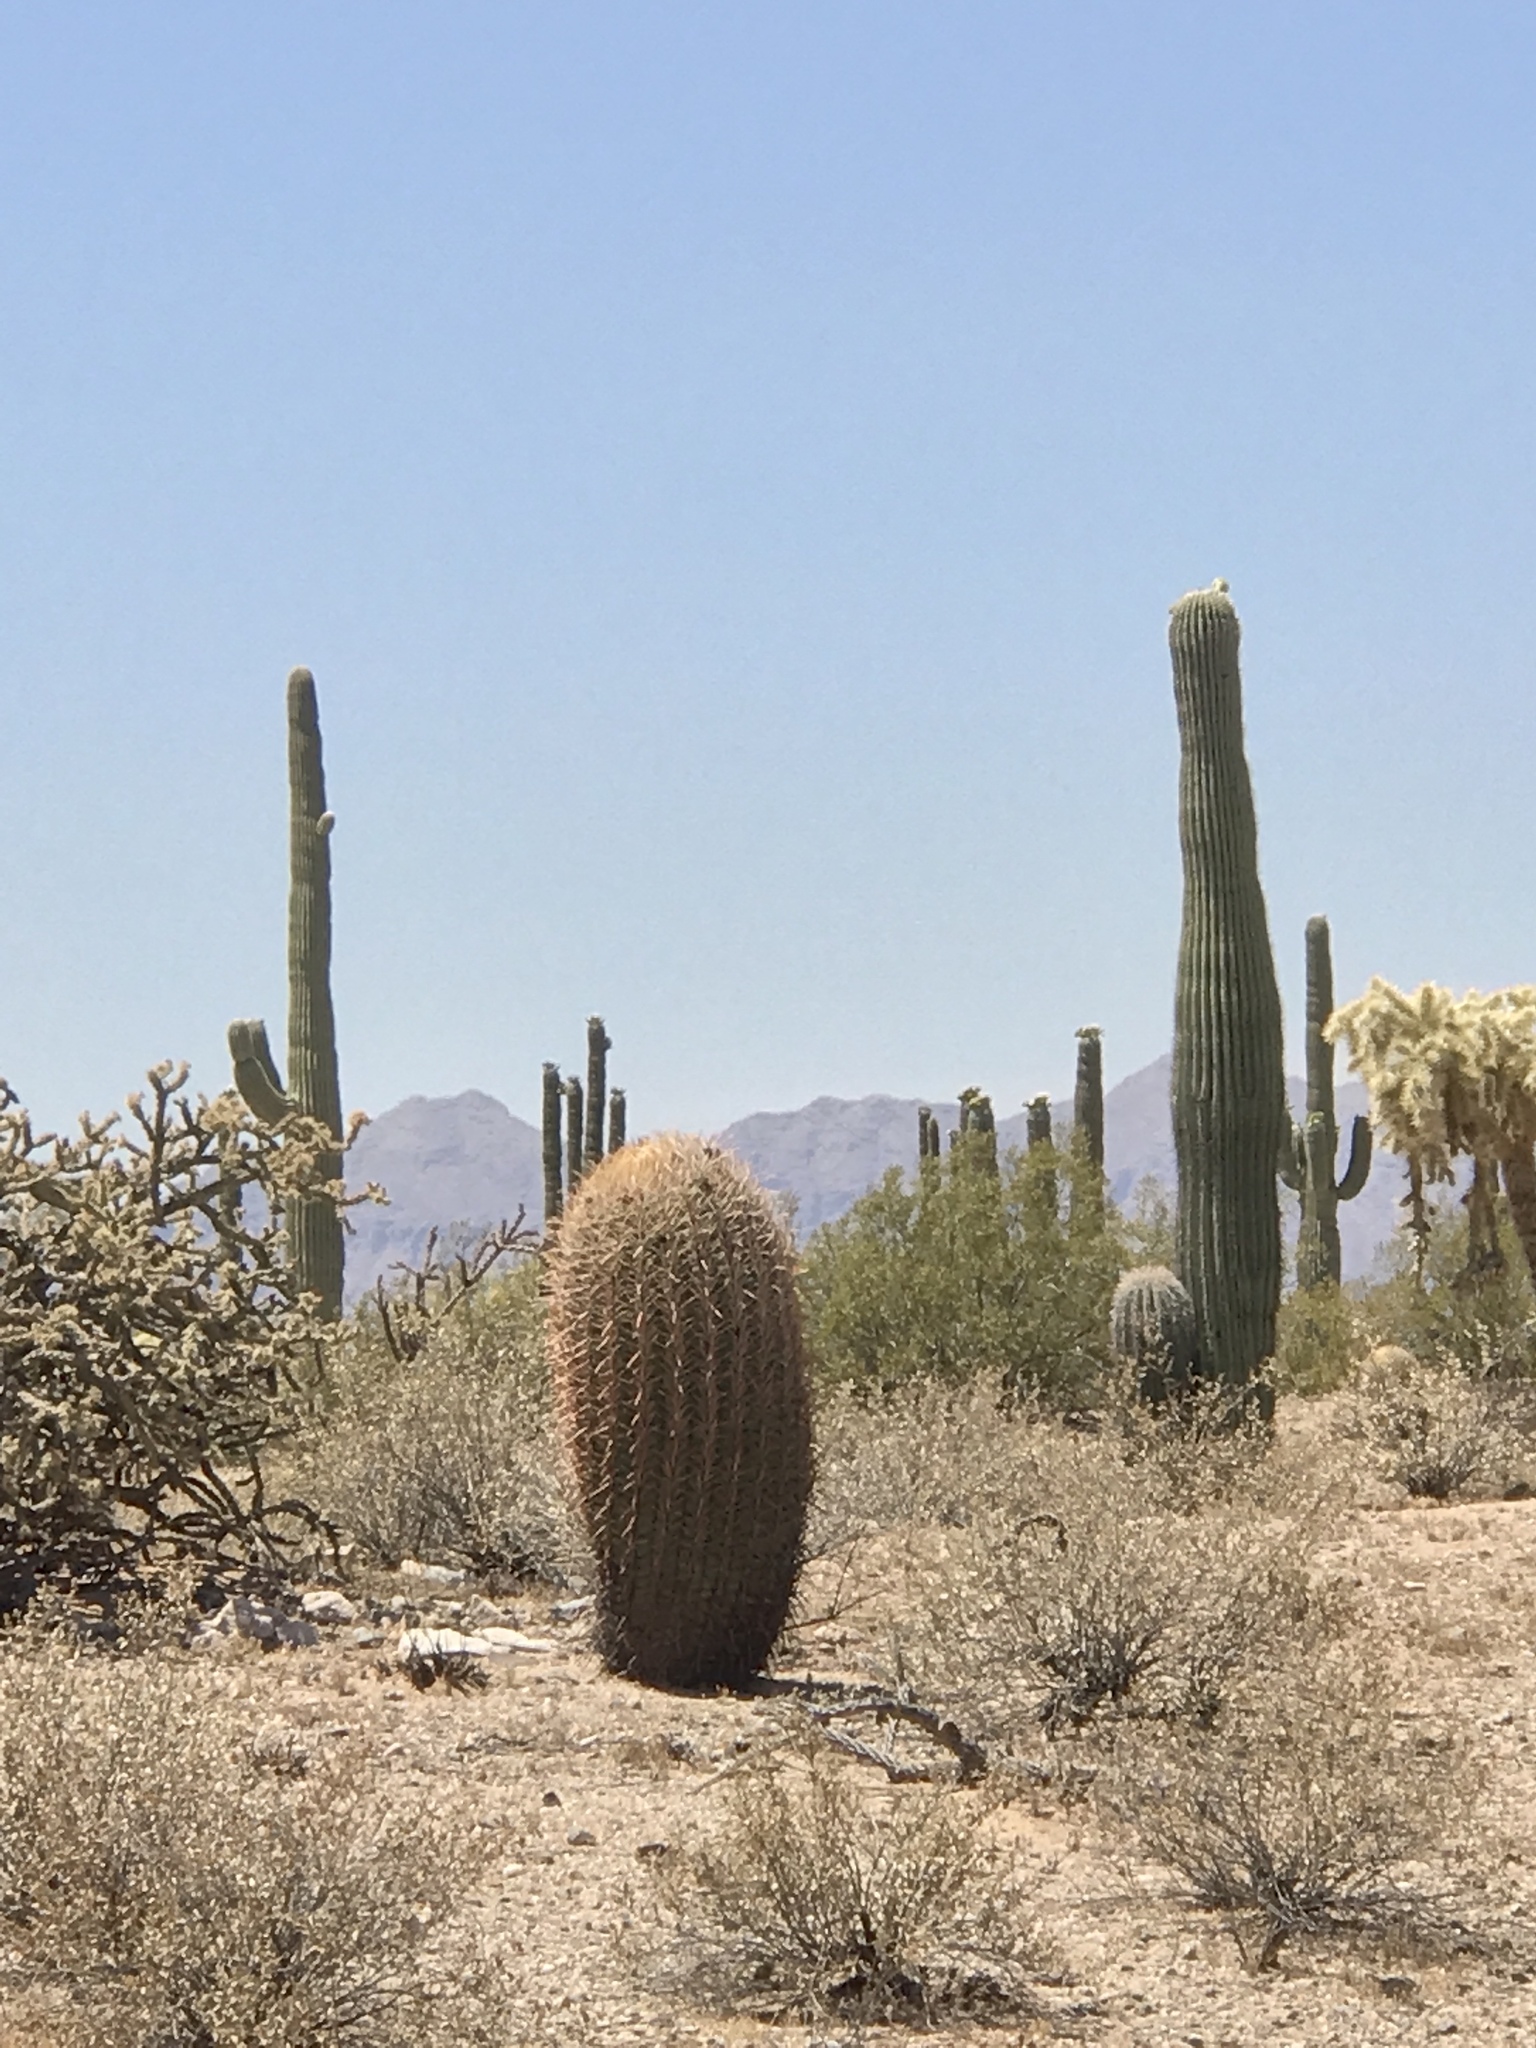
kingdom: Plantae
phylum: Tracheophyta
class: Magnoliopsida
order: Caryophyllales
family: Cactaceae
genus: Ferocactus
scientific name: Ferocactus wislizeni
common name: Candy barrel cactus
